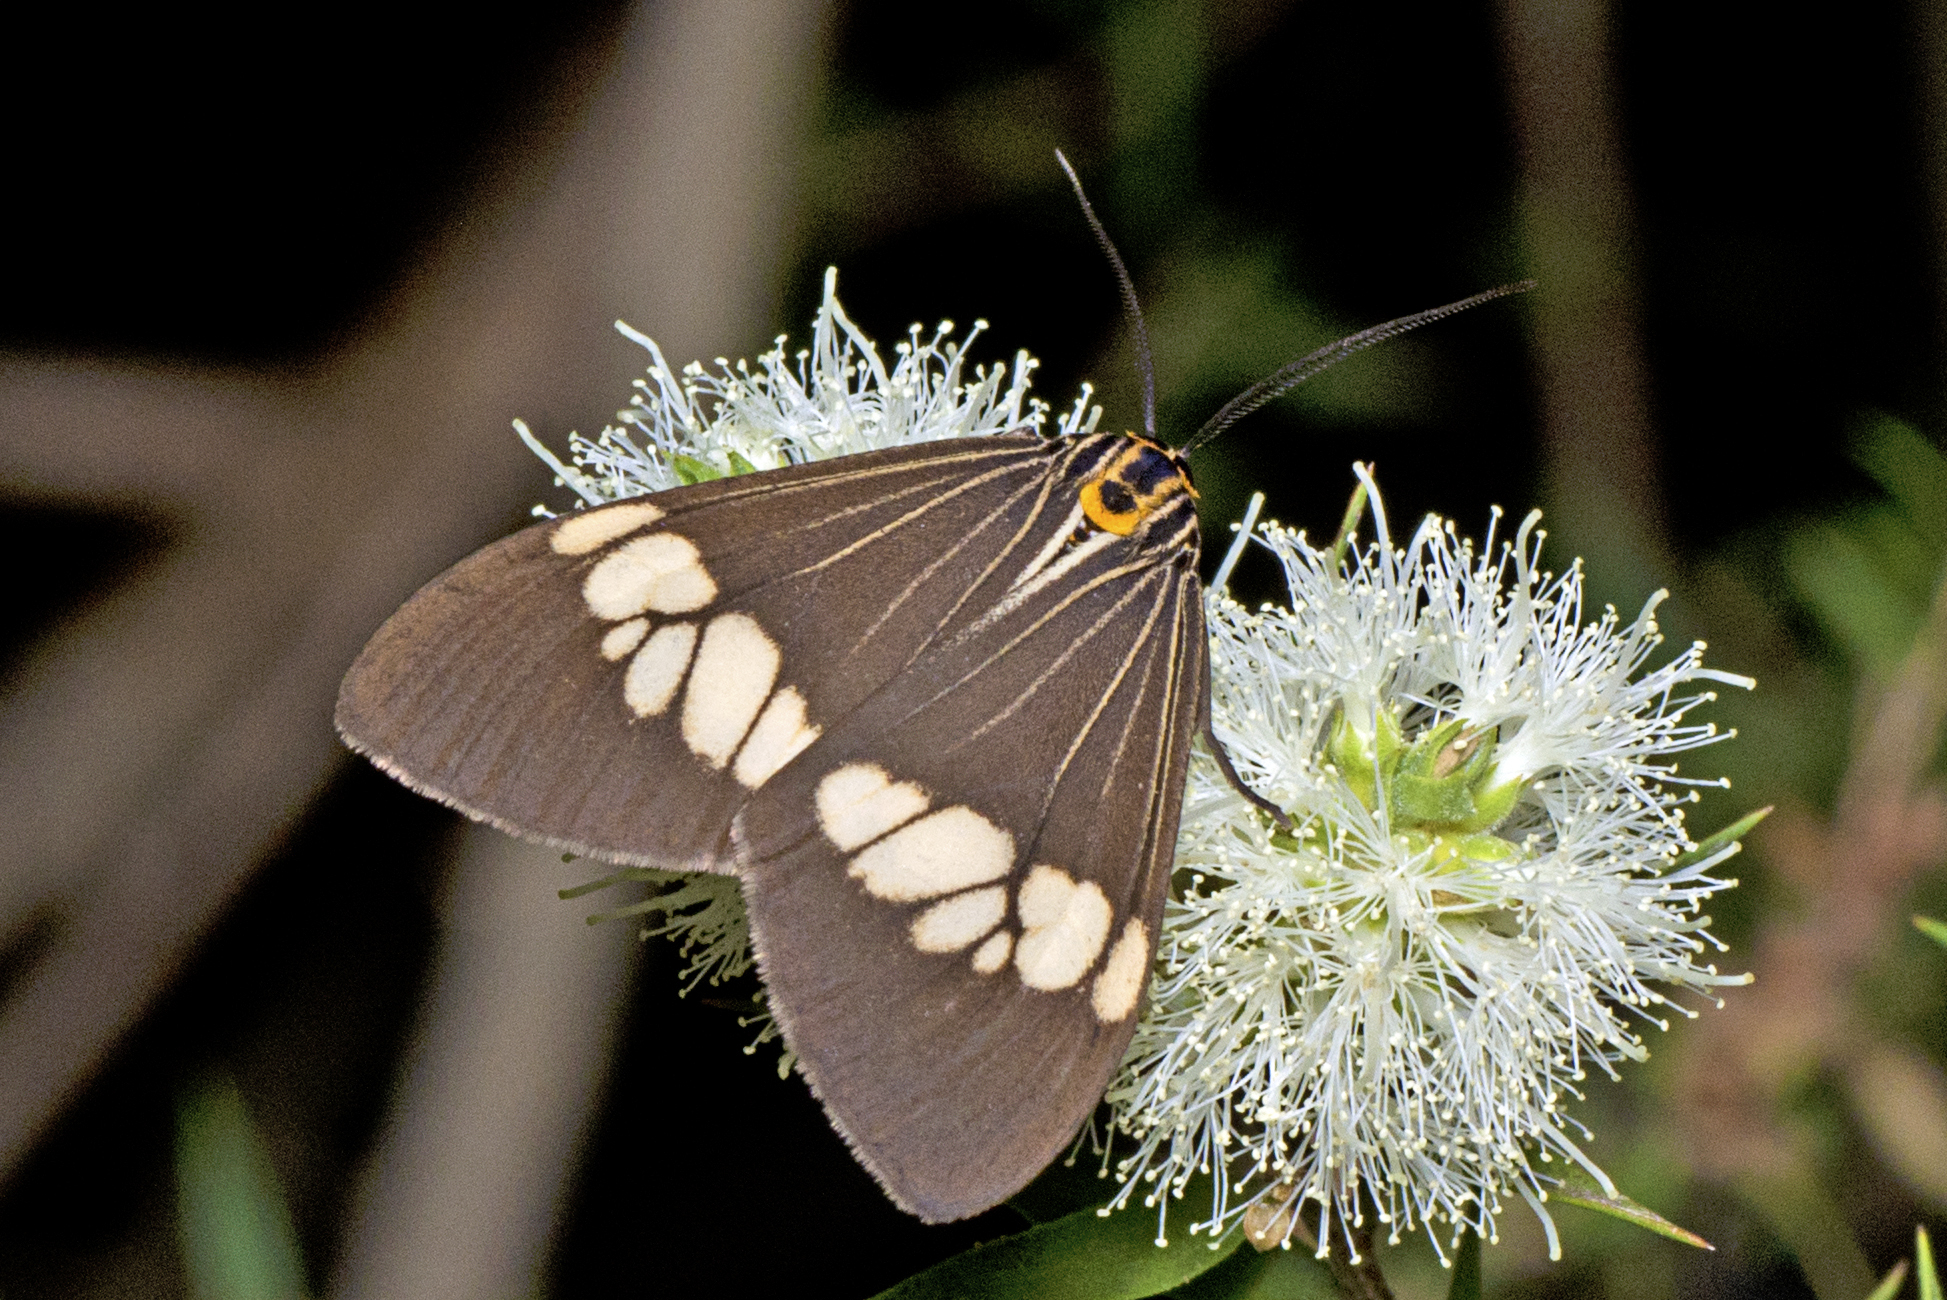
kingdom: Animalia
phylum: Arthropoda
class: Insecta
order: Lepidoptera
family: Erebidae
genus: Nyctemera
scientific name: Nyctemera baulus
